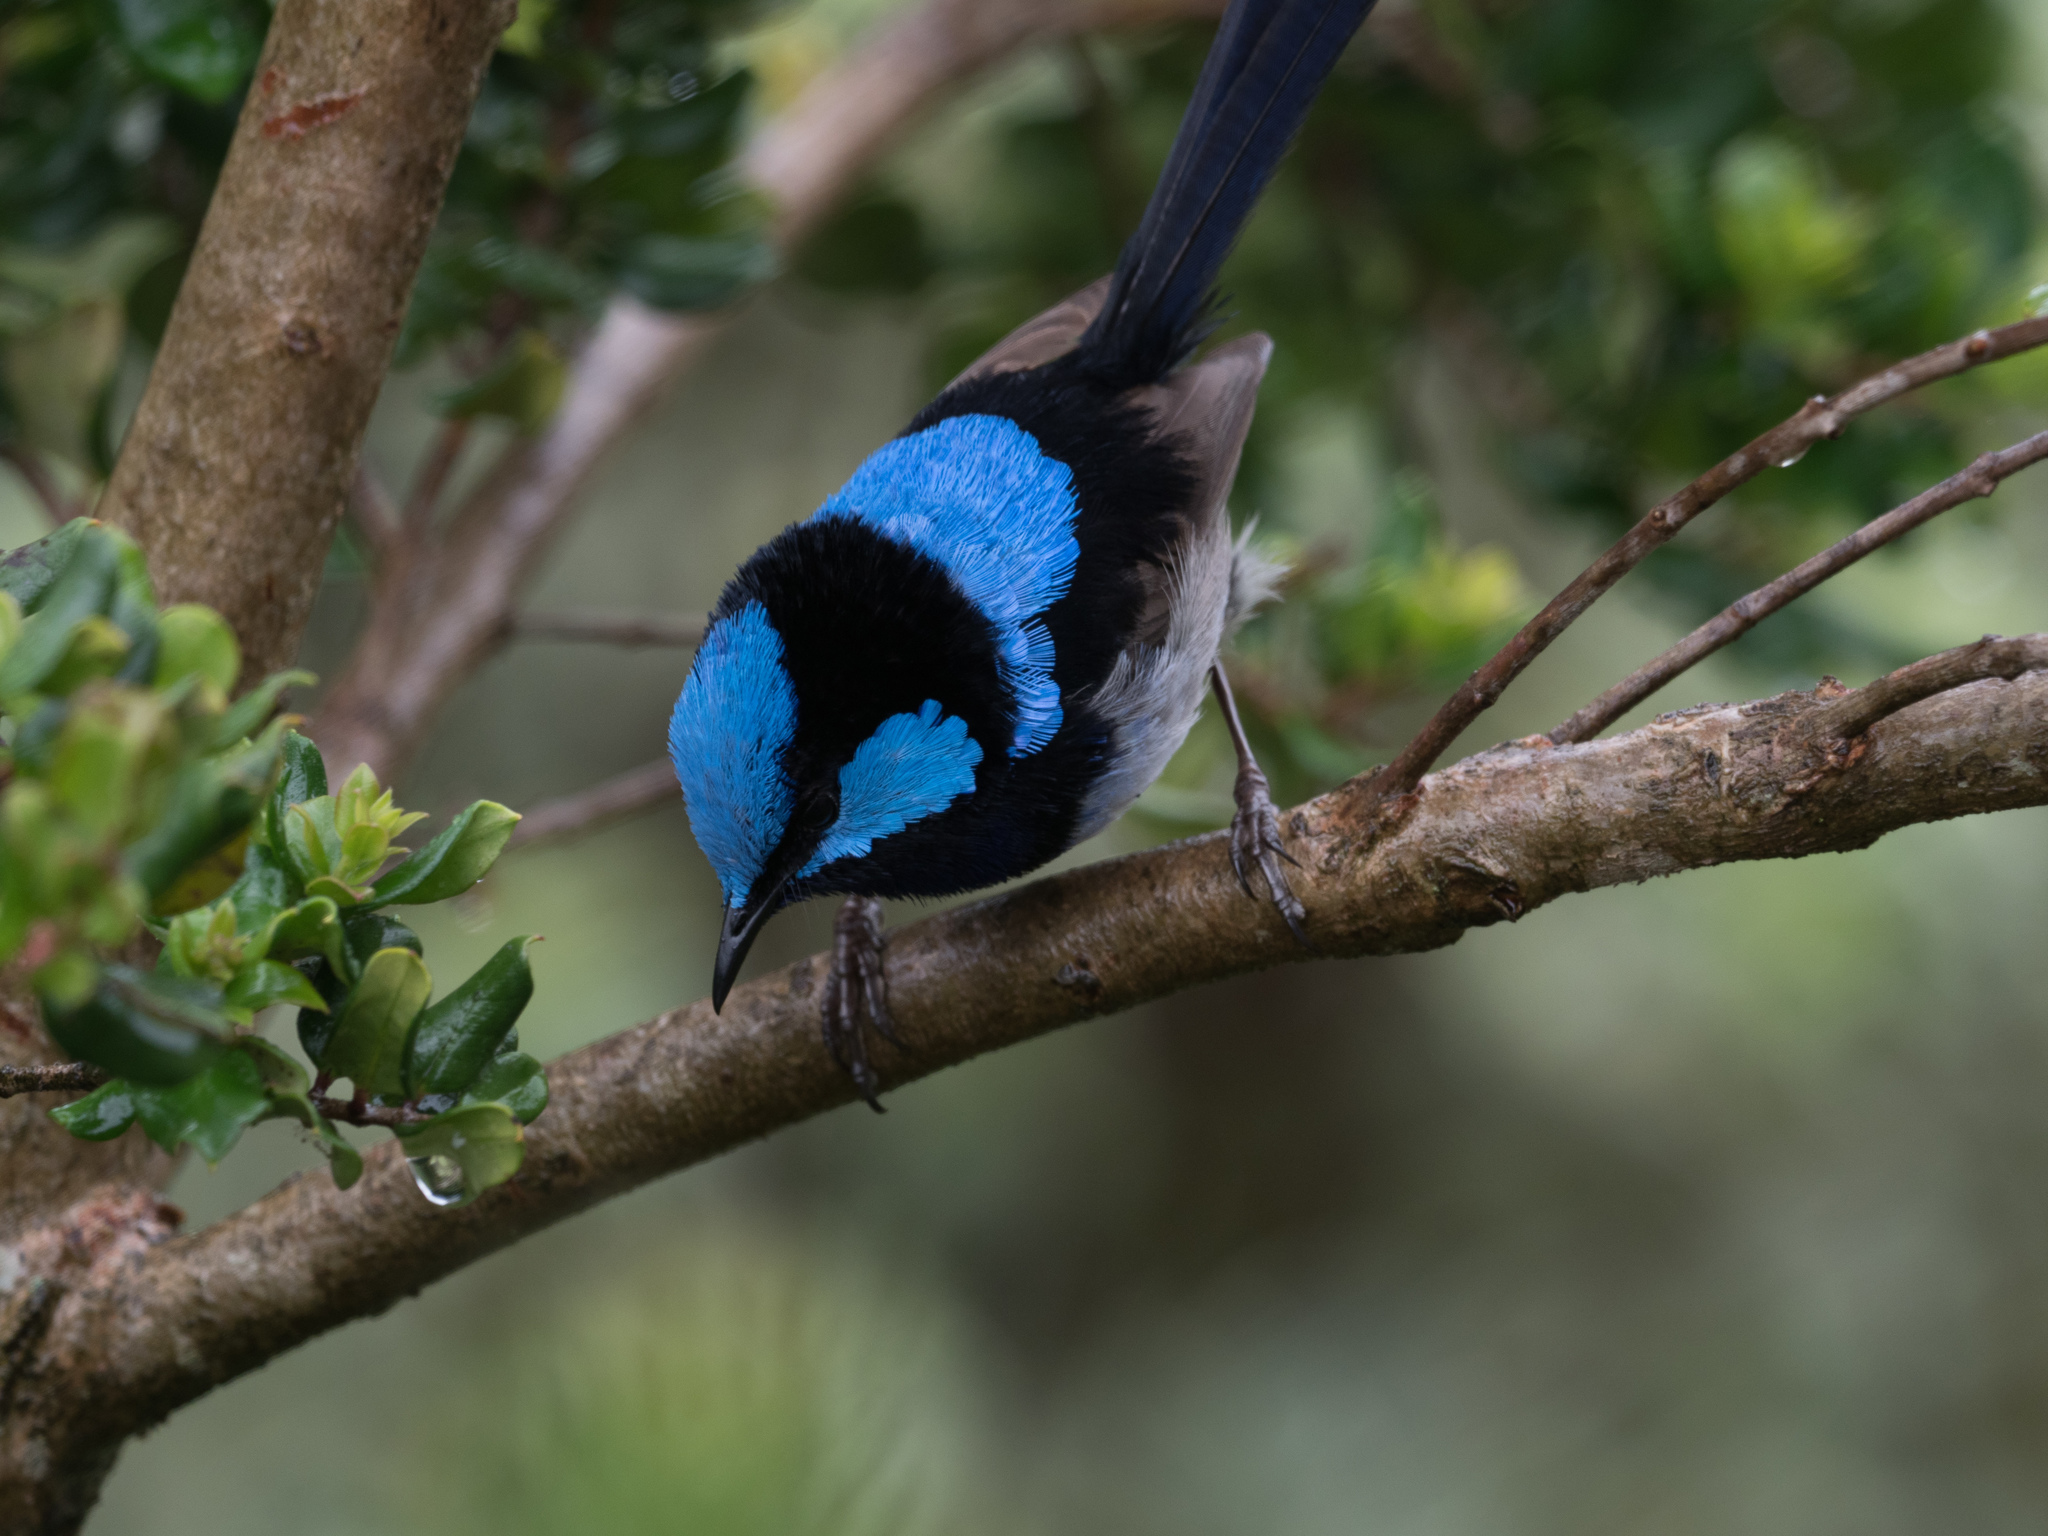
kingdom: Animalia
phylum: Chordata
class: Aves
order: Passeriformes
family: Maluridae
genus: Malurus
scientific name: Malurus cyaneus
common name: Superb fairywren
